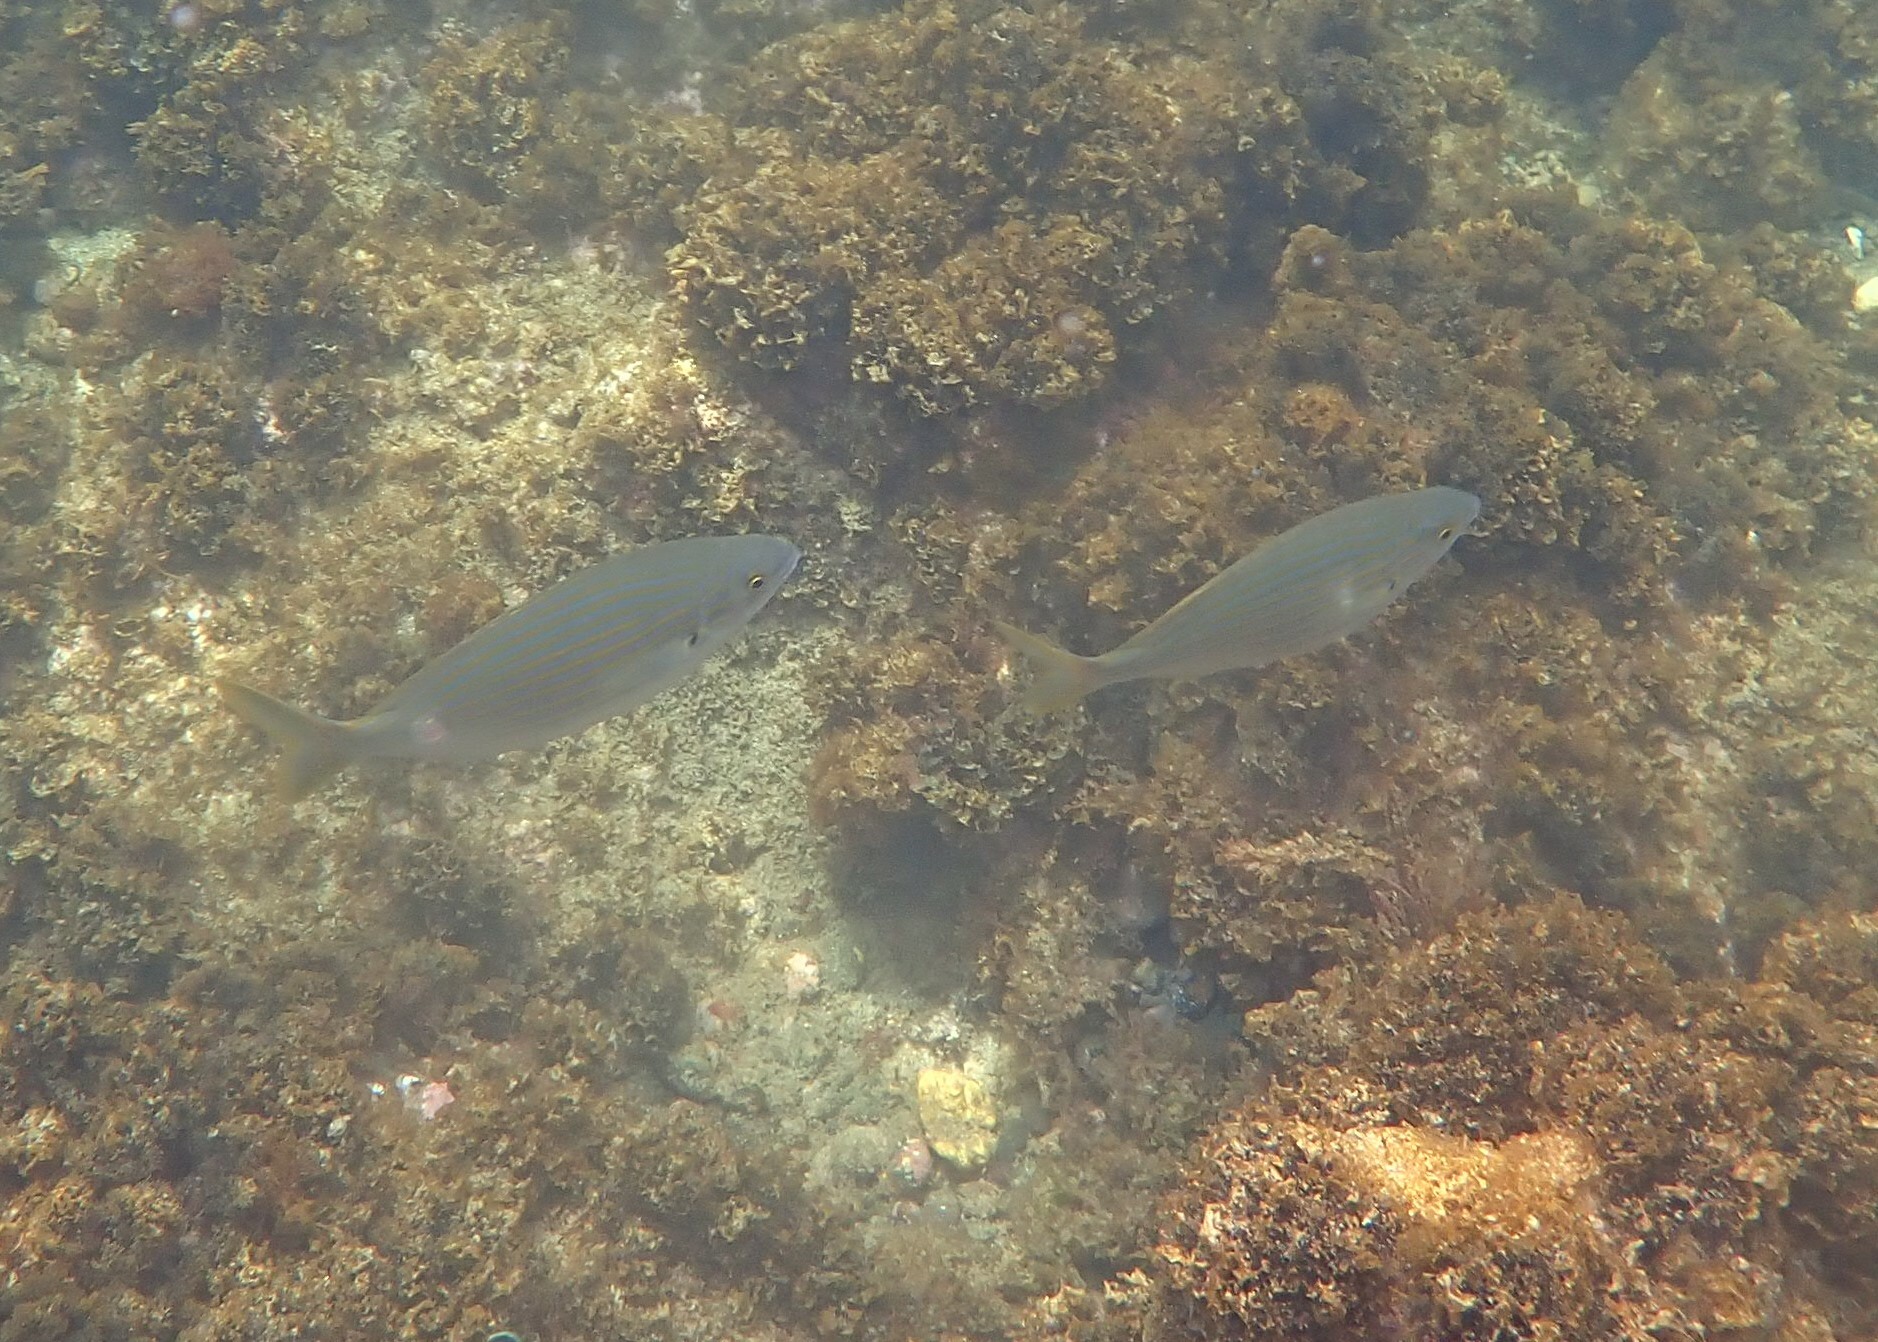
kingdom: Animalia
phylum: Chordata
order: Perciformes
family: Sparidae
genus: Sarpa
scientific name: Sarpa salpa
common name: Salema
